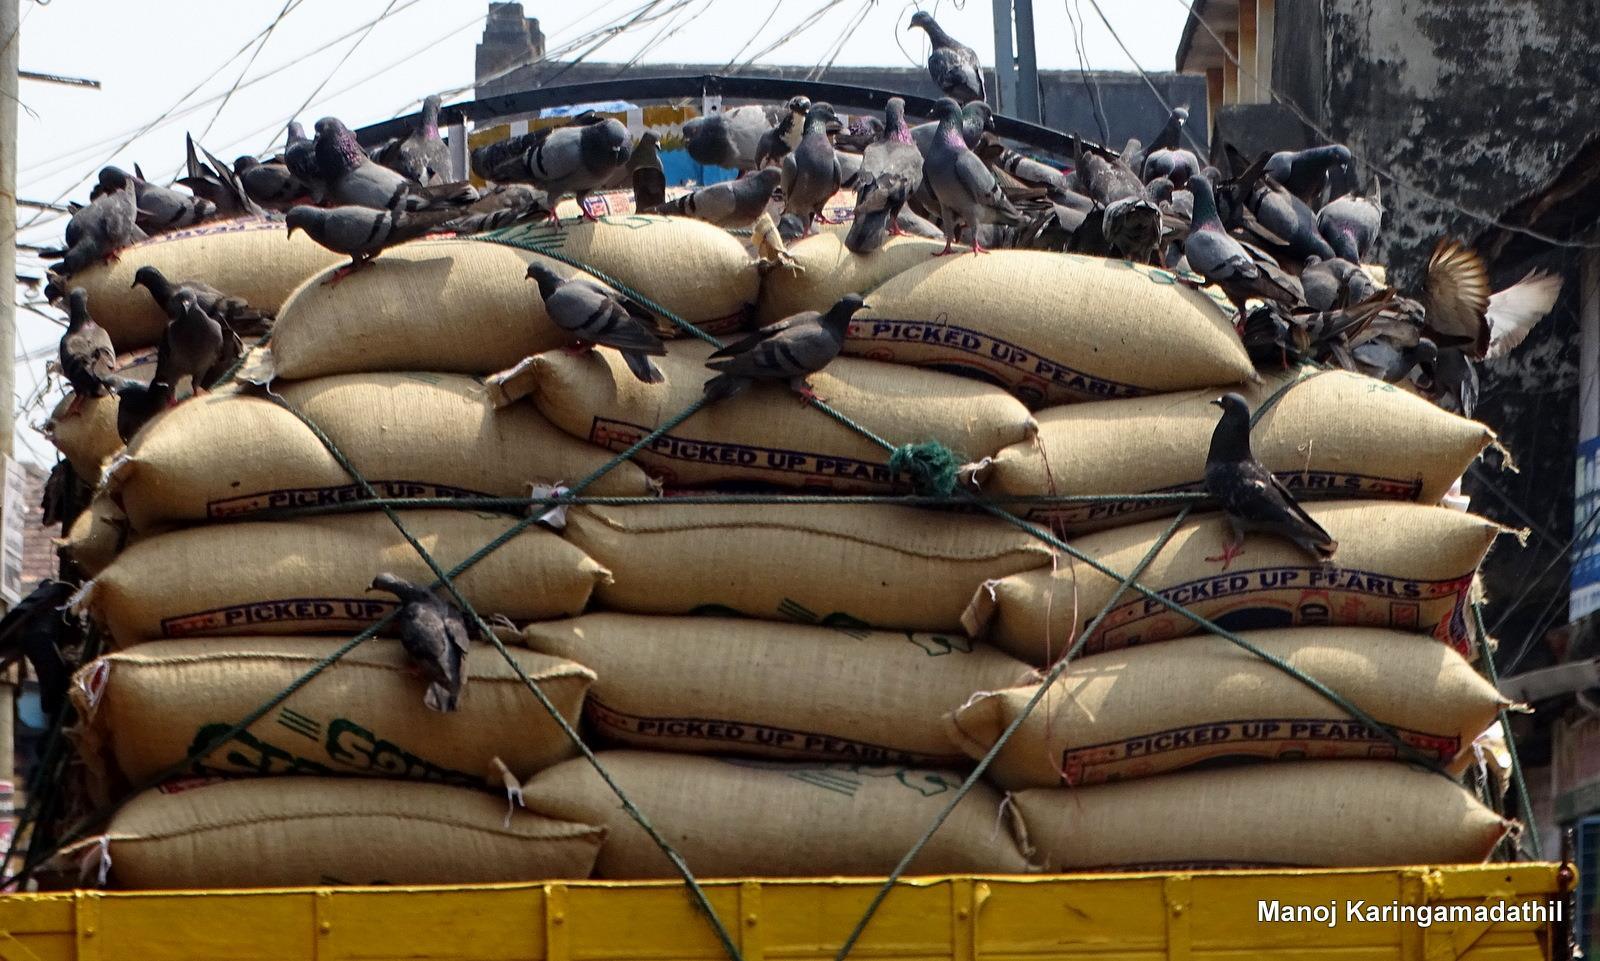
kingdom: Animalia
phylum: Chordata
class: Aves
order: Columbiformes
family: Columbidae
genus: Columba
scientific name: Columba livia
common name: Rock pigeon
